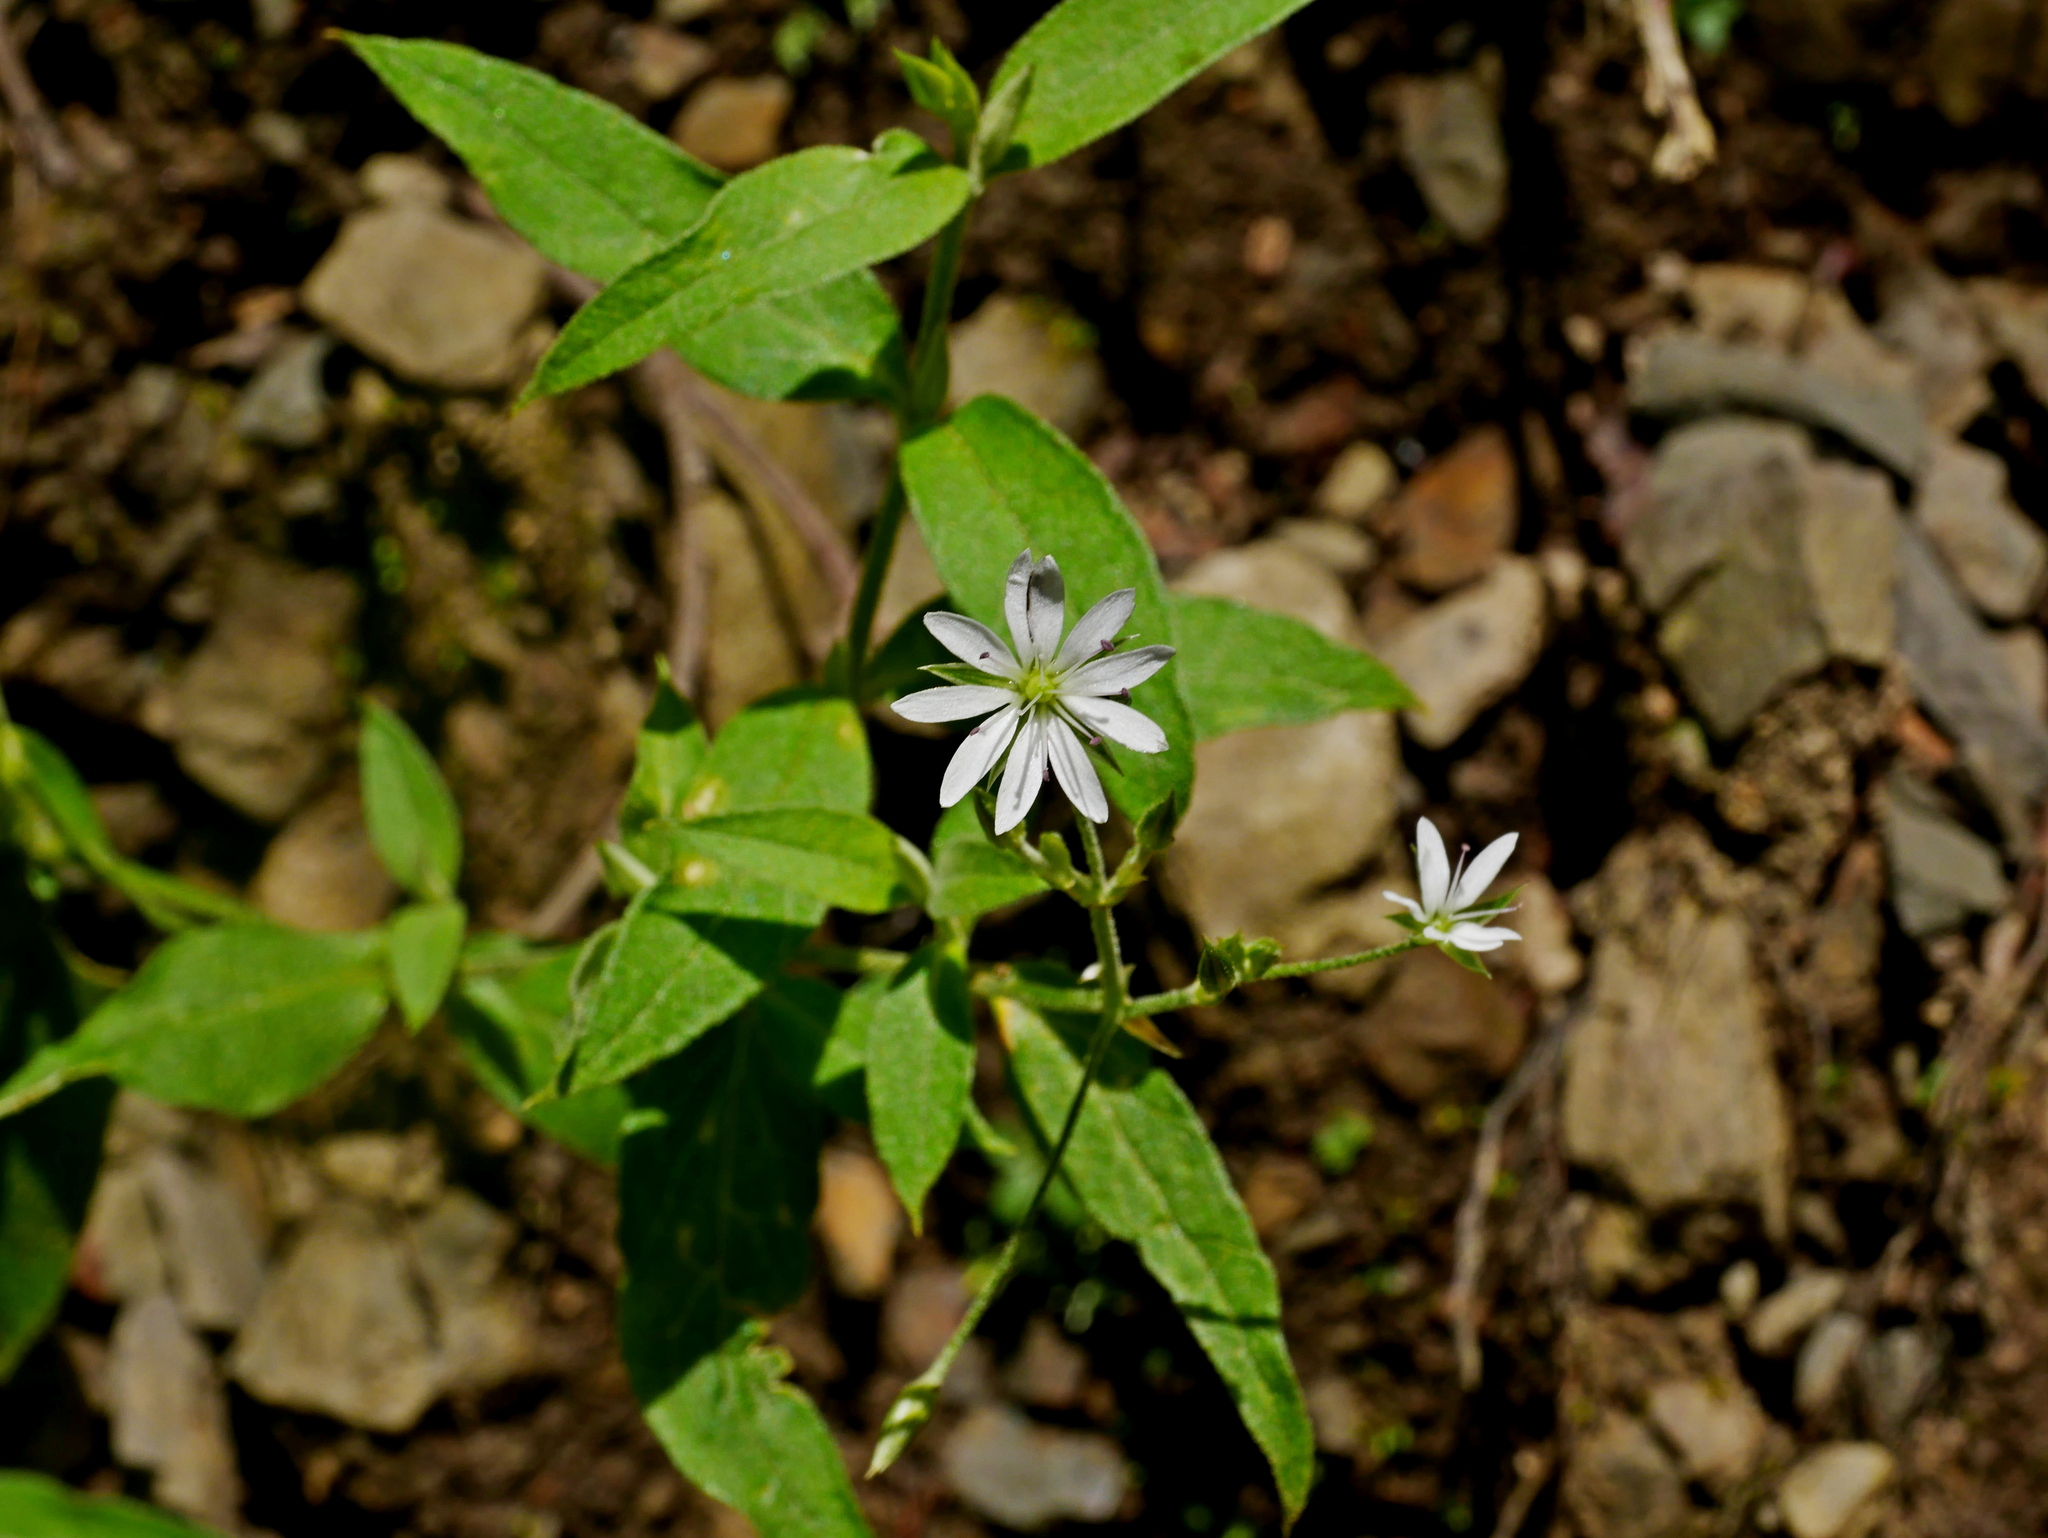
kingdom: Plantae
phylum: Tracheophyta
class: Magnoliopsida
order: Caryophyllales
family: Caryophyllaceae
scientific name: Caryophyllaceae
